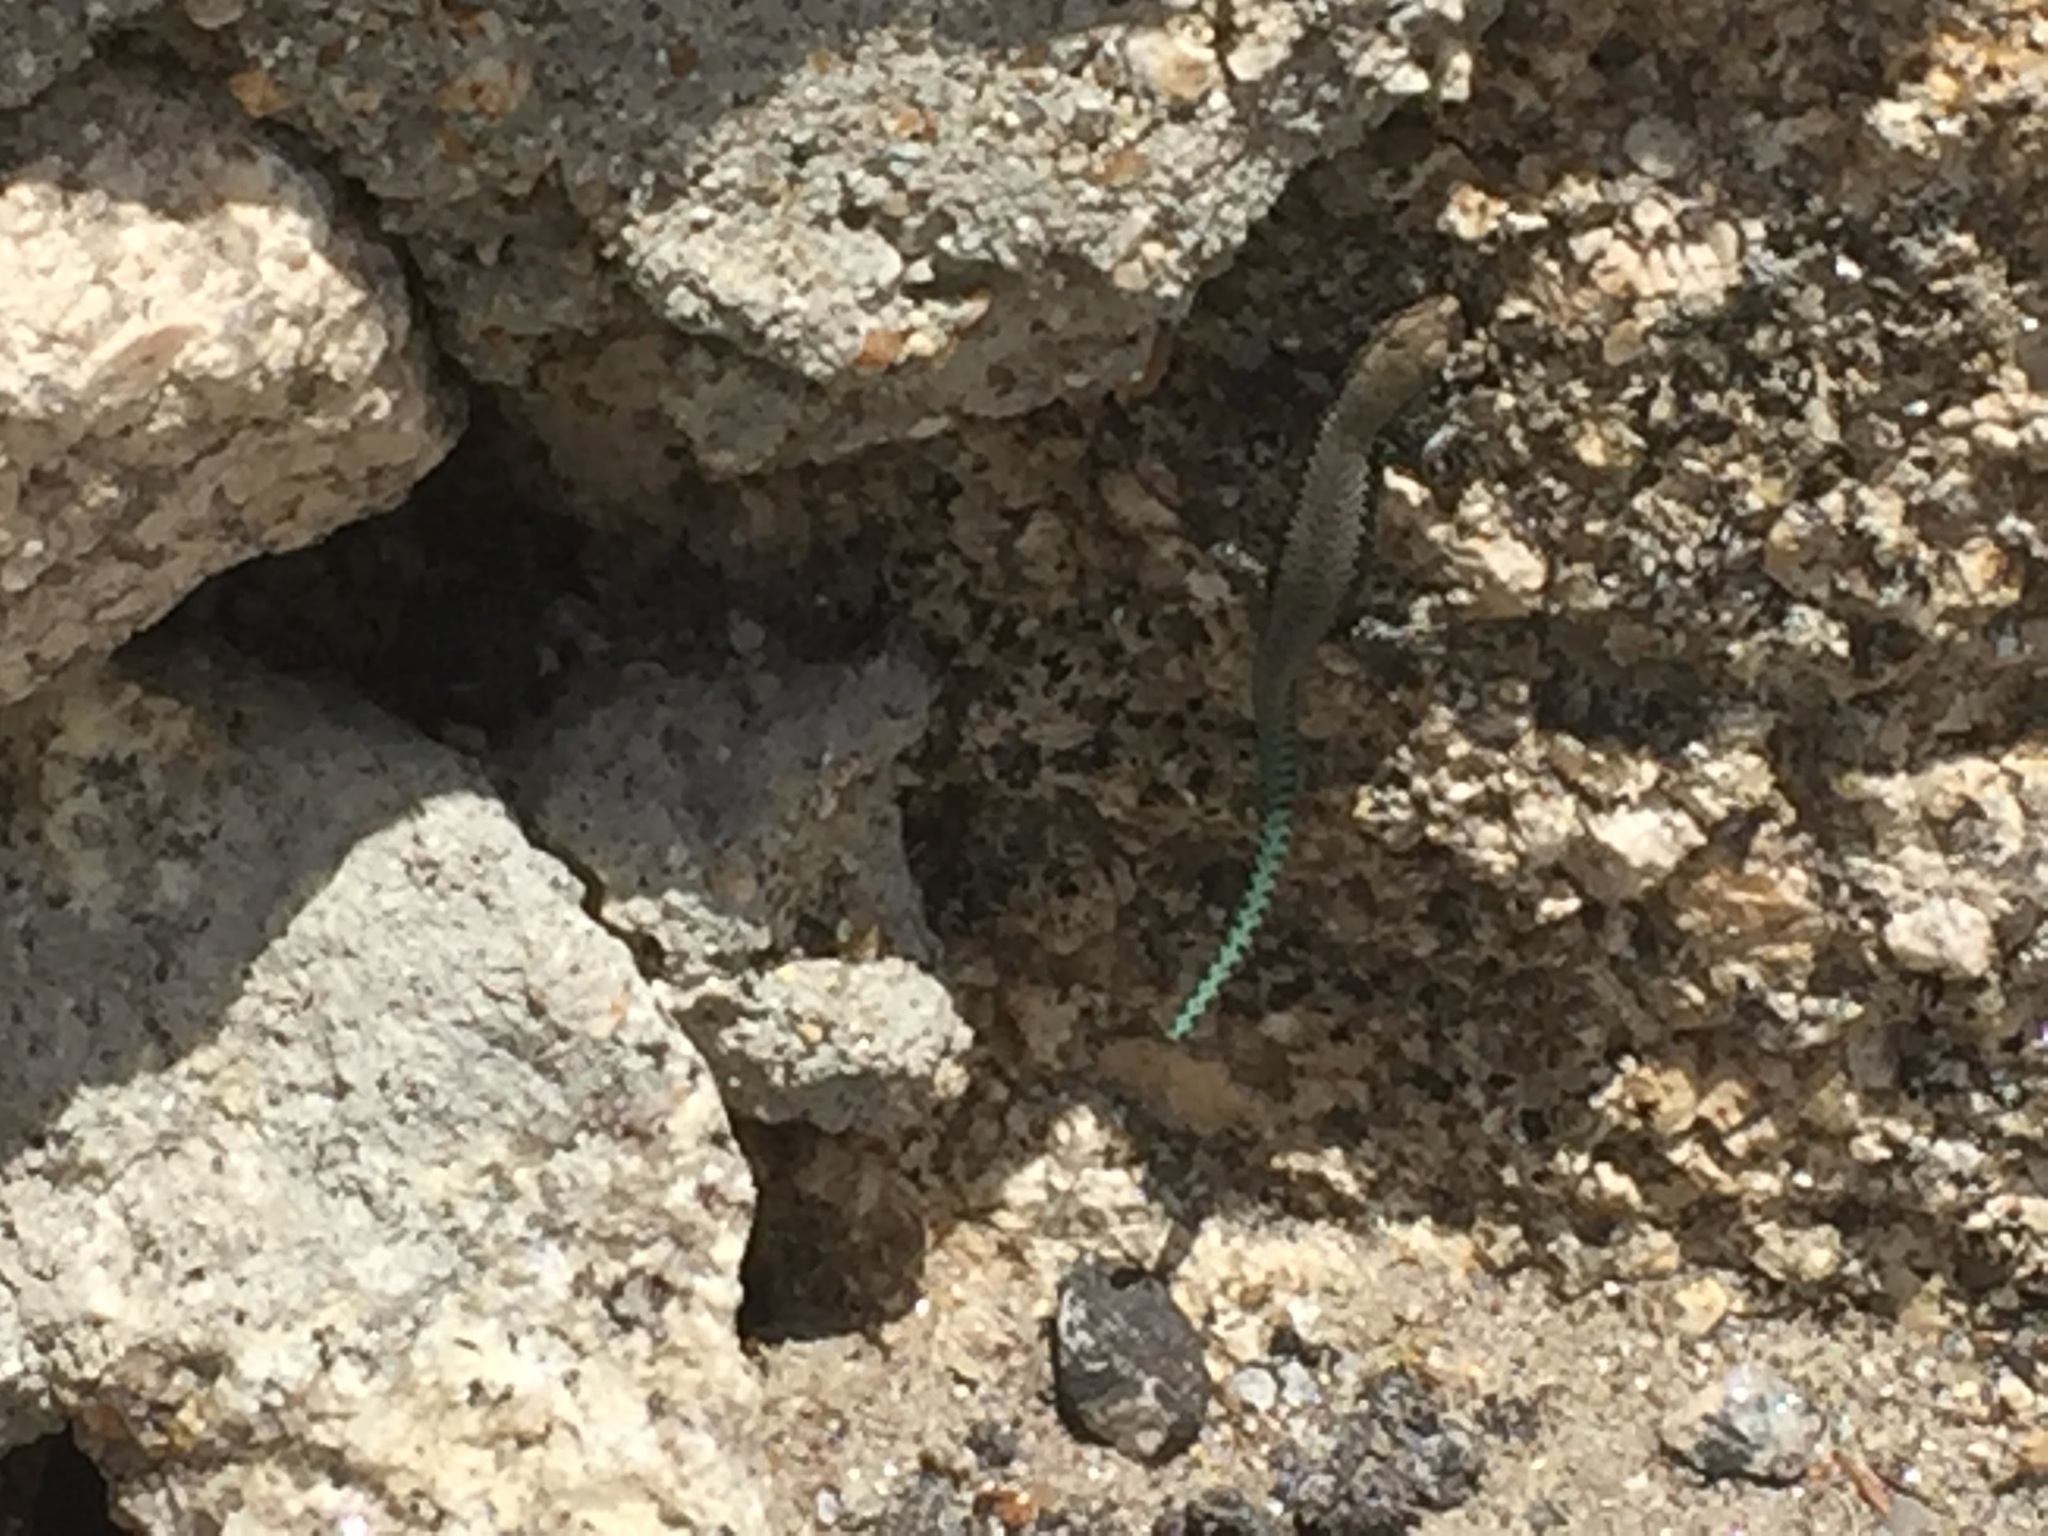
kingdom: Animalia
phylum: Chordata
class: Squamata
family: Lacertidae
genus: Iberolacerta
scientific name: Iberolacerta monticola
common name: Iberian mountain lizard
